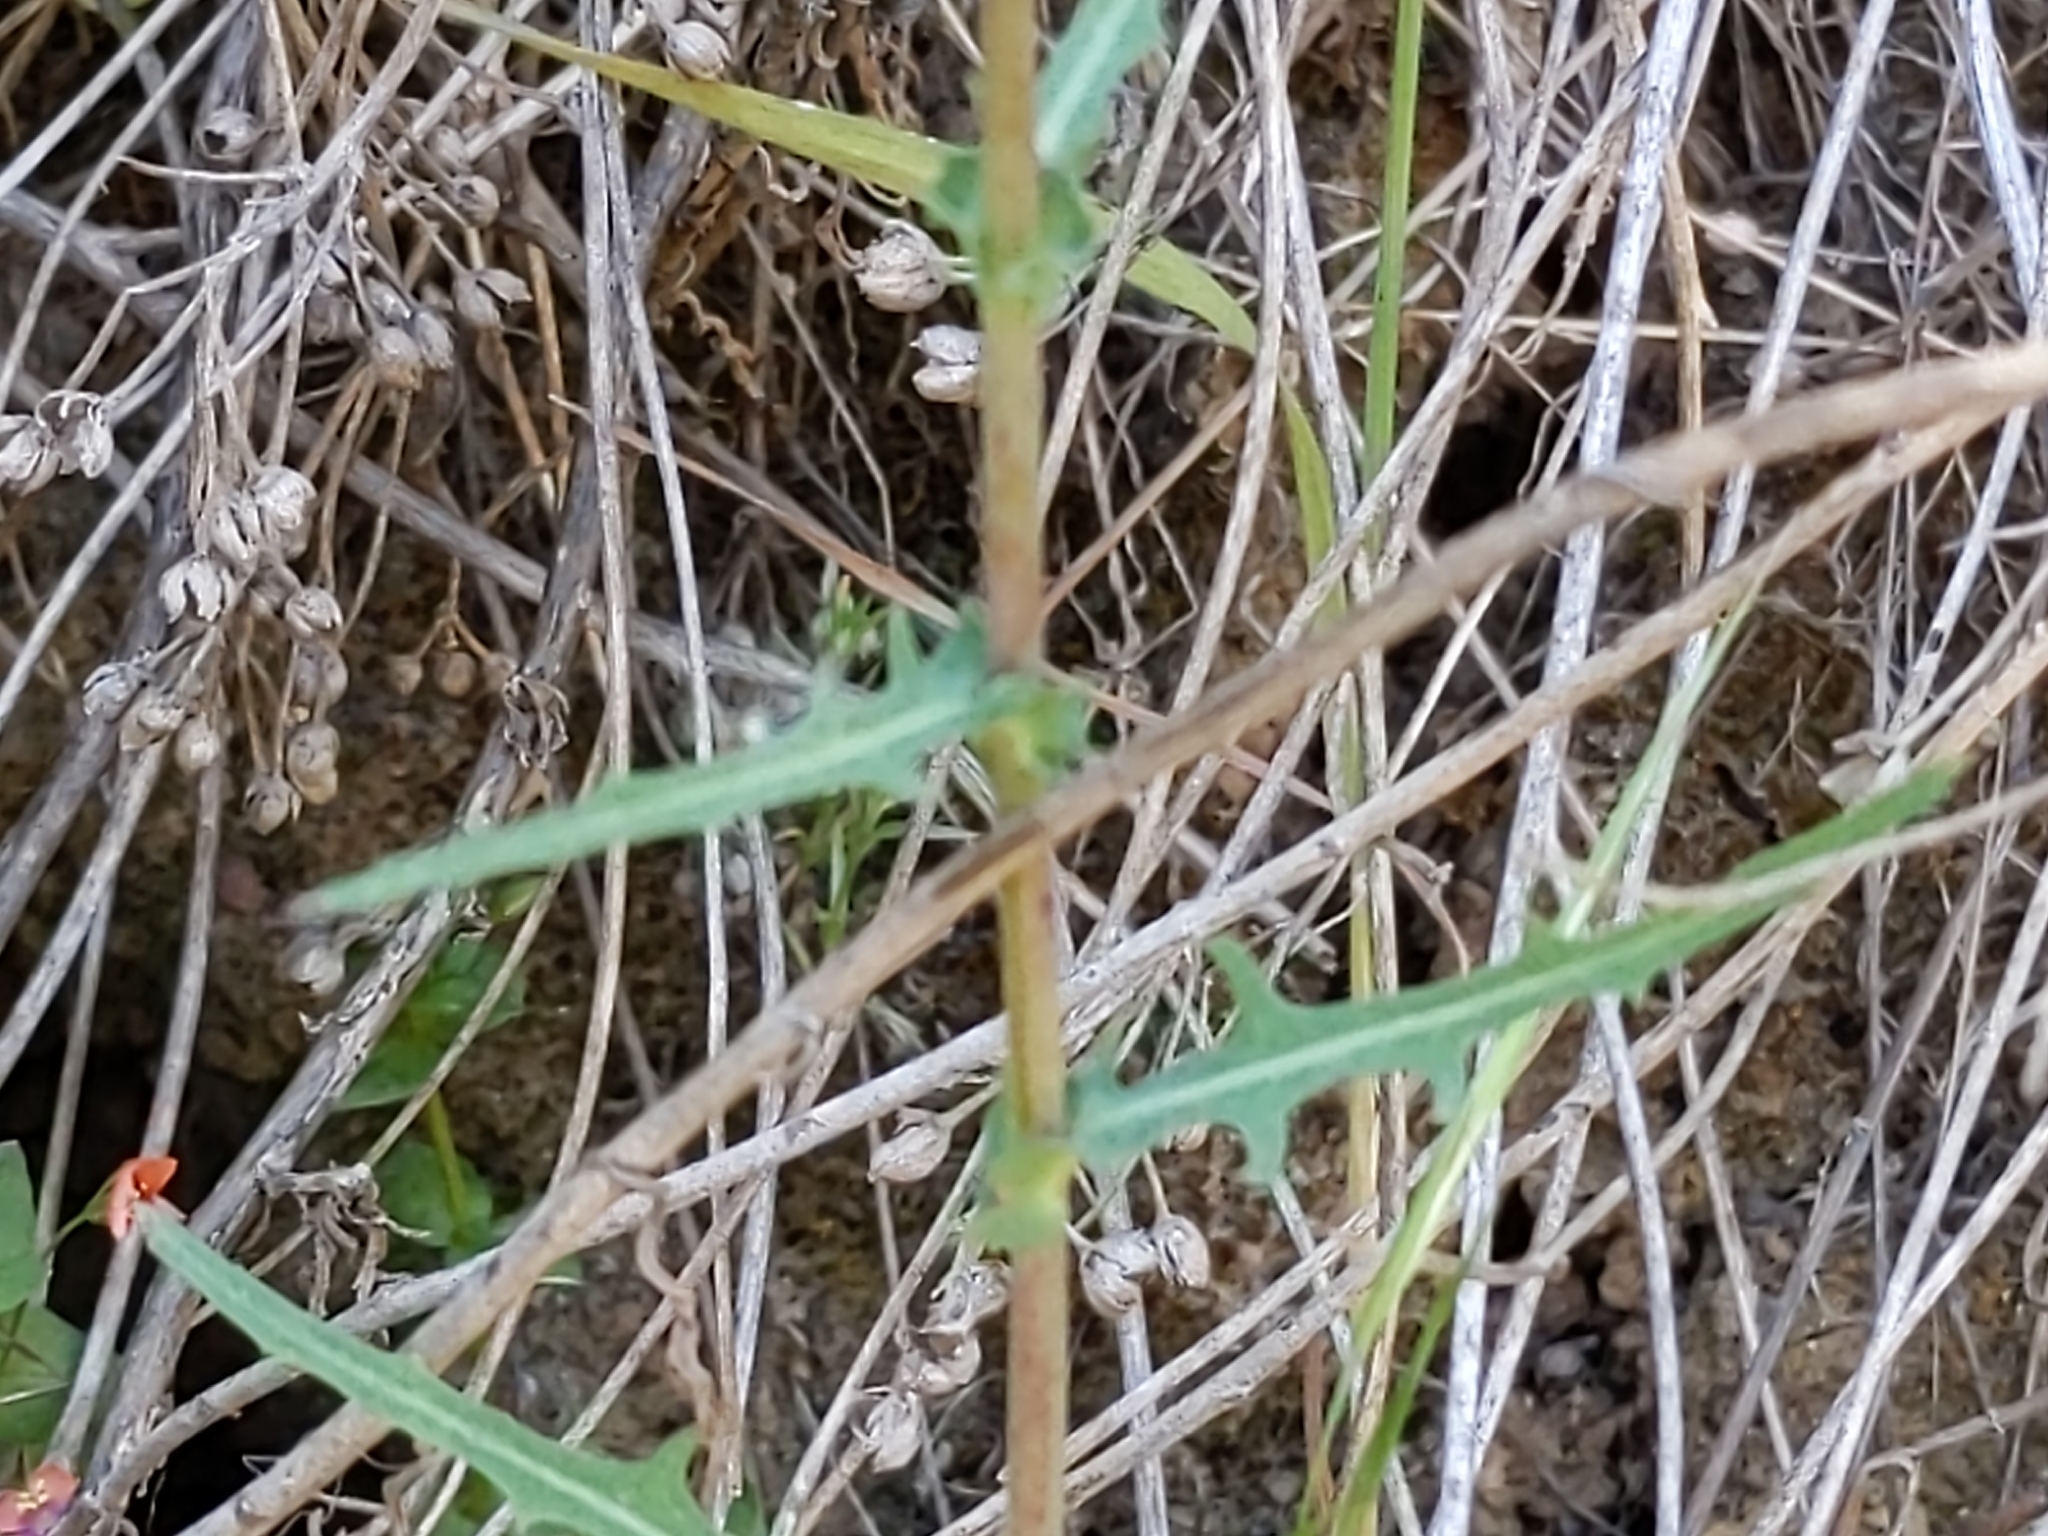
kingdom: Plantae
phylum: Tracheophyta
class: Magnoliopsida
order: Asterales
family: Asteraceae
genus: Rafinesquia
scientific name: Rafinesquia californica
